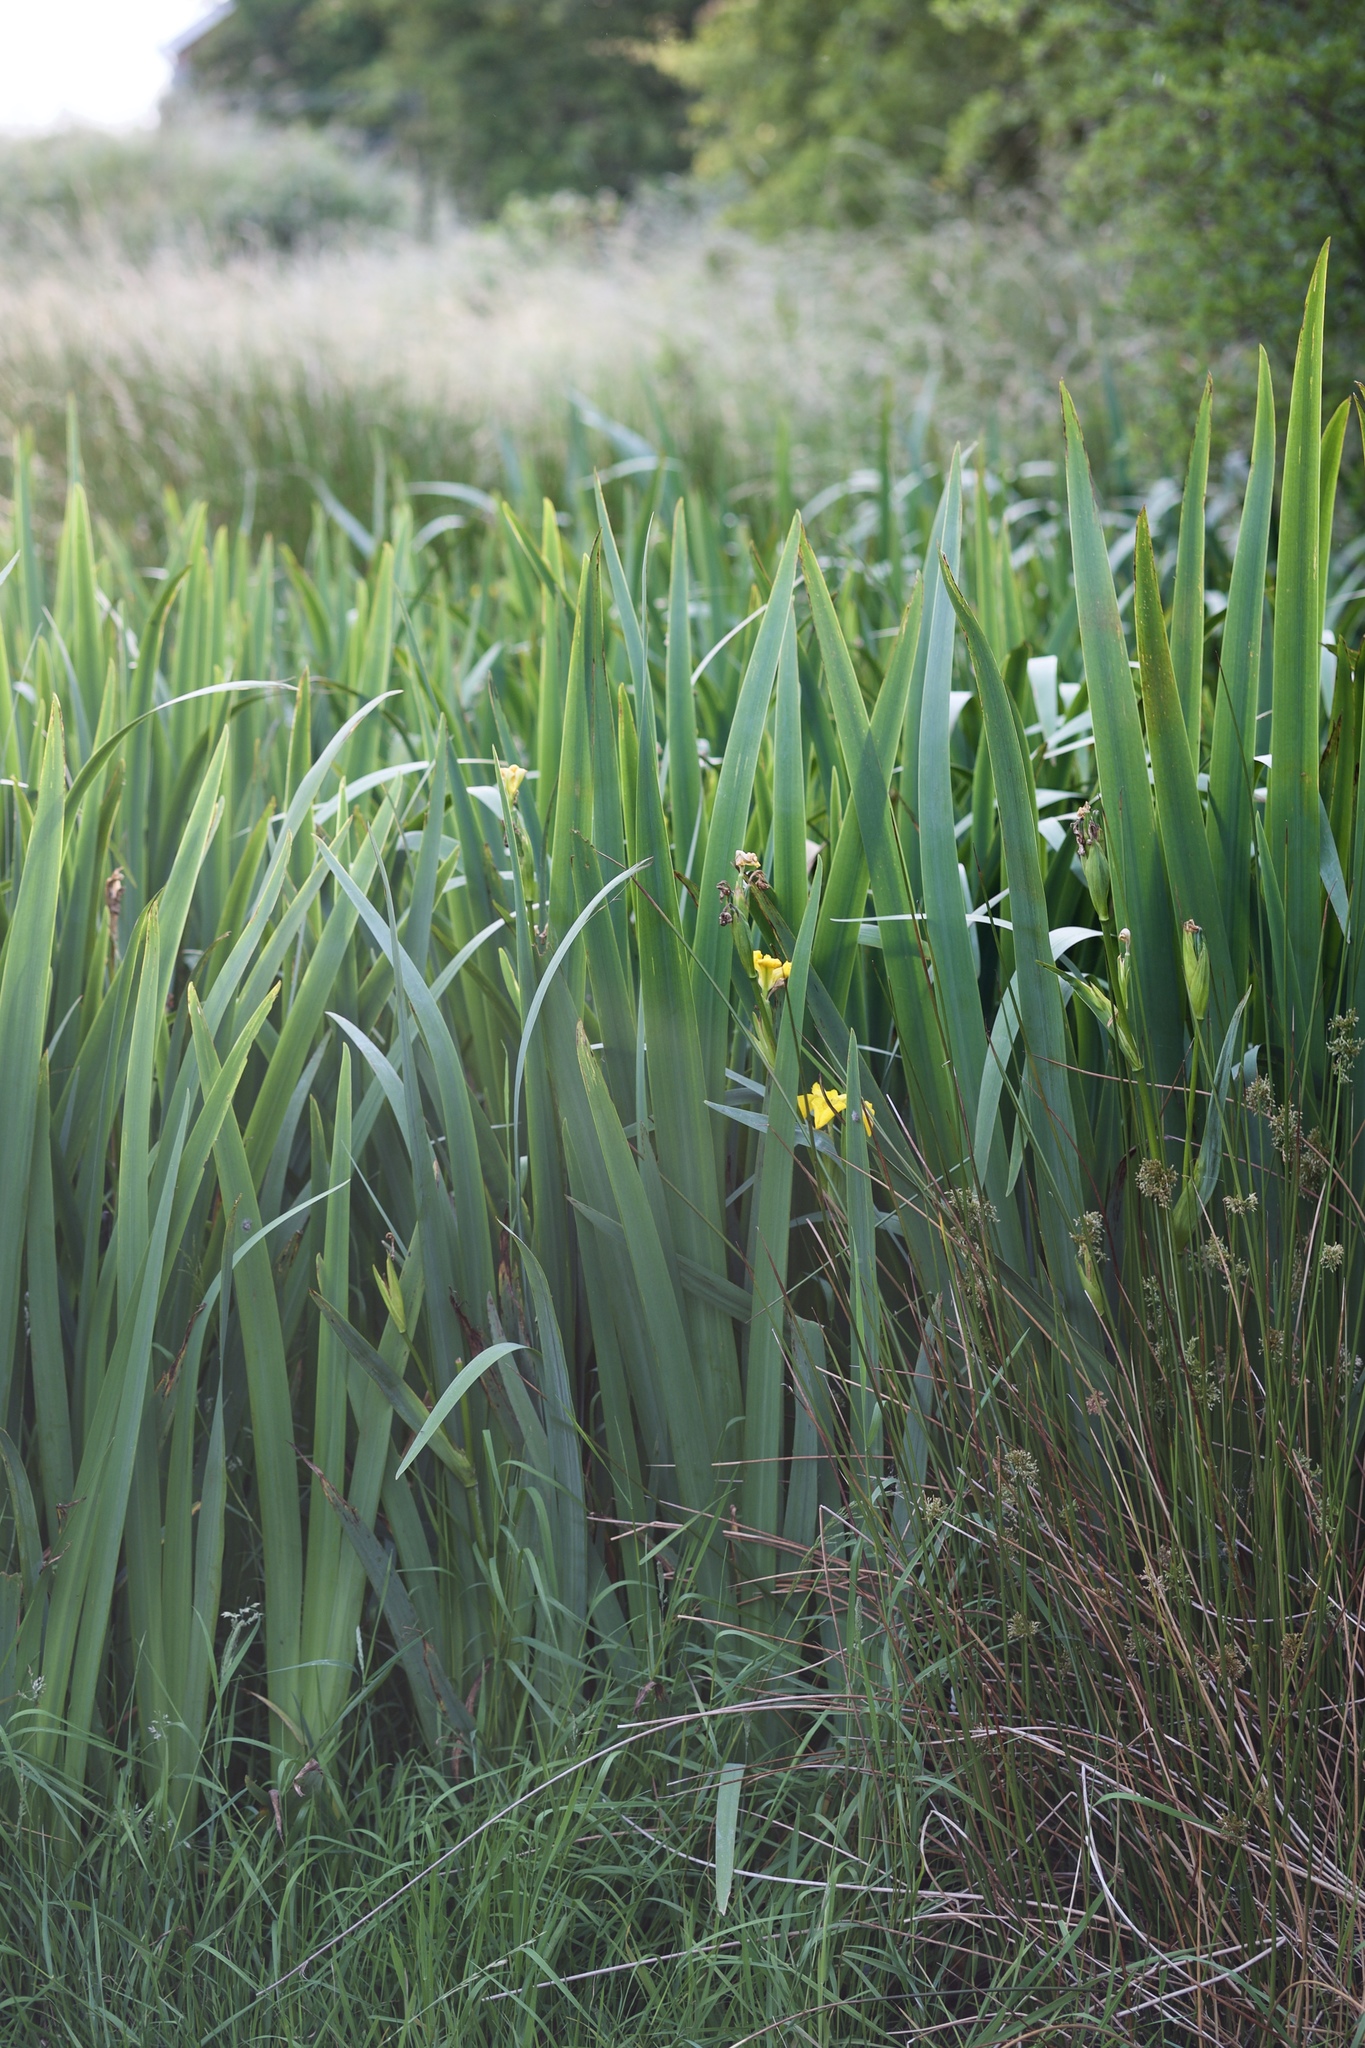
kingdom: Plantae
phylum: Tracheophyta
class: Liliopsida
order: Asparagales
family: Iridaceae
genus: Iris
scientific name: Iris pseudacorus
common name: Yellow flag
